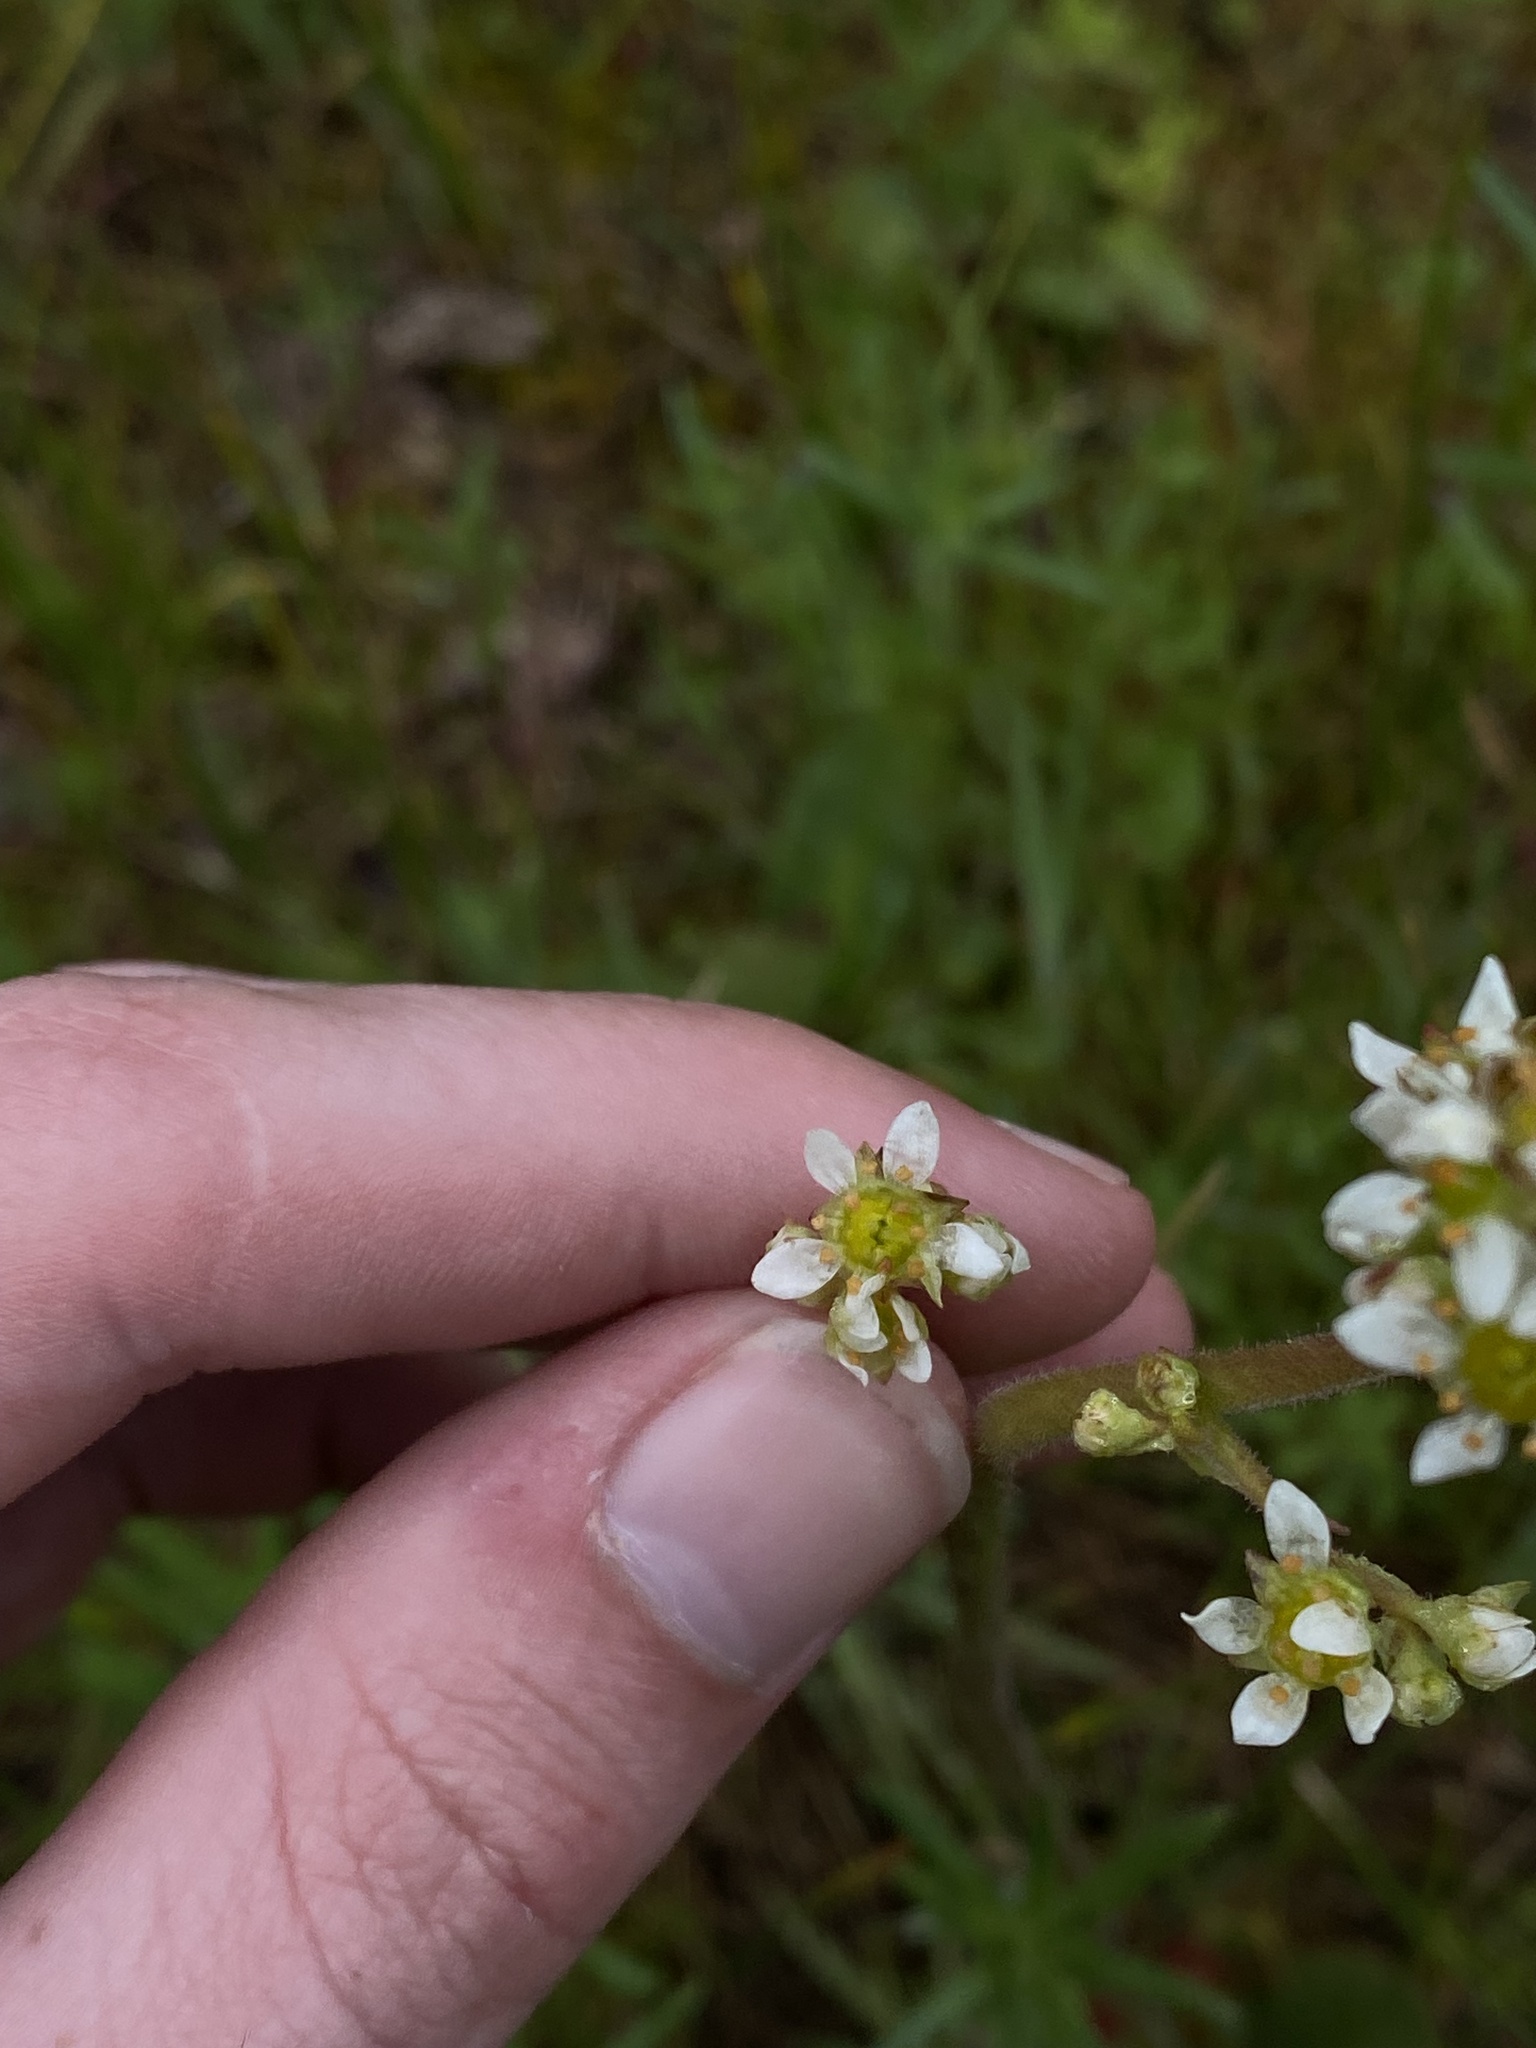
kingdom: Plantae
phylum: Tracheophyta
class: Magnoliopsida
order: Saxifragales
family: Saxifragaceae
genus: Micranthes
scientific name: Micranthes oregana
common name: Bog saxifrage
